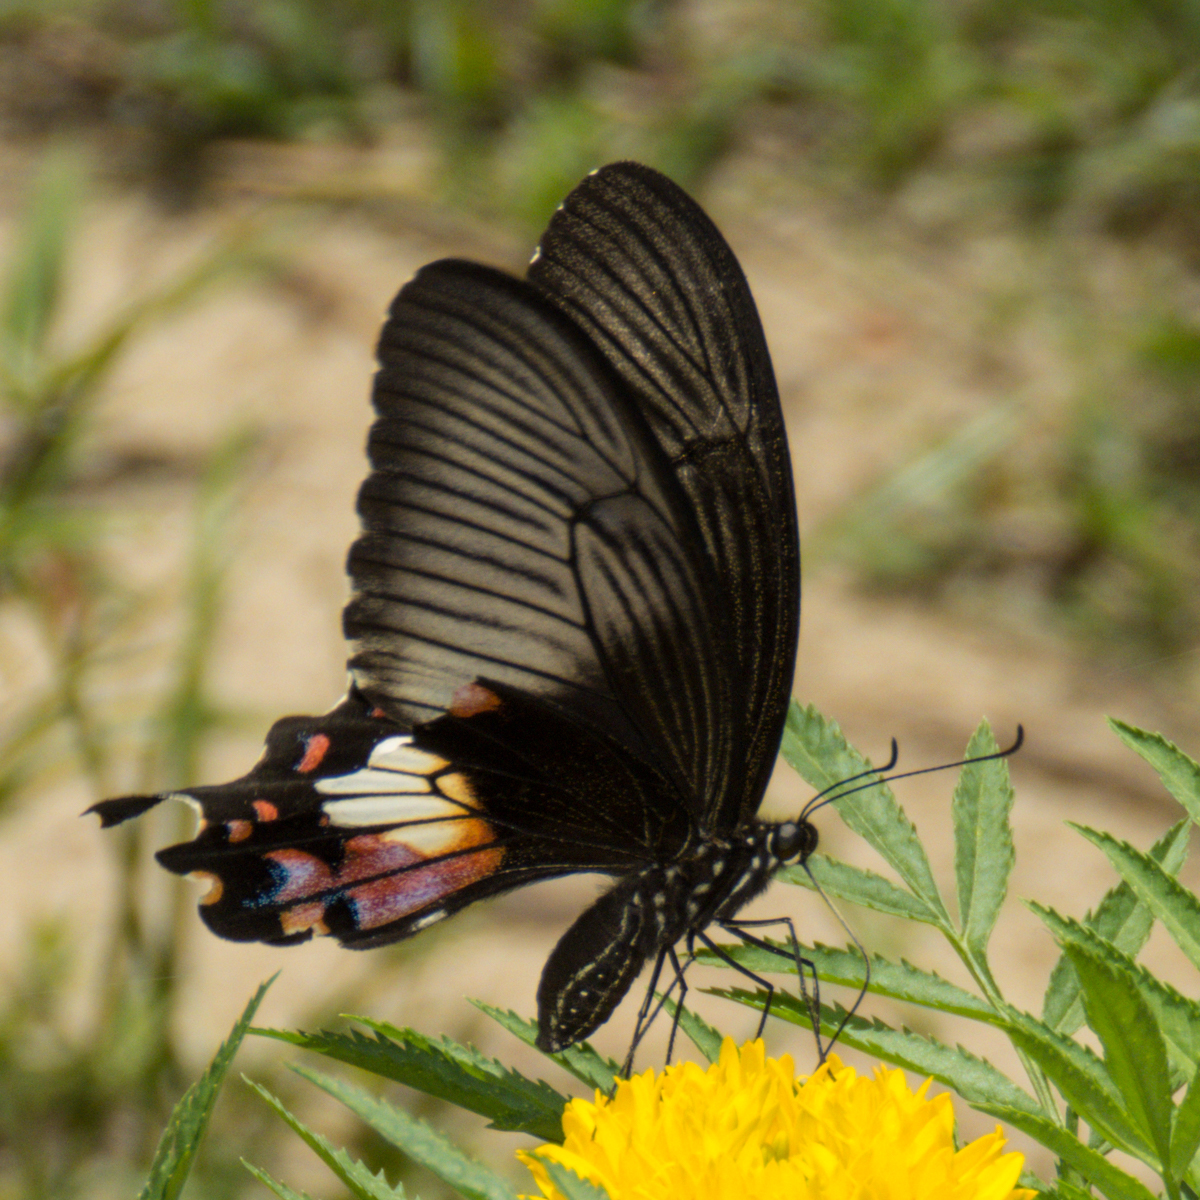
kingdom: Animalia
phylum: Arthropoda
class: Insecta
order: Lepidoptera
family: Papilionidae
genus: Papilio
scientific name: Papilio polytes
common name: Common mormon
